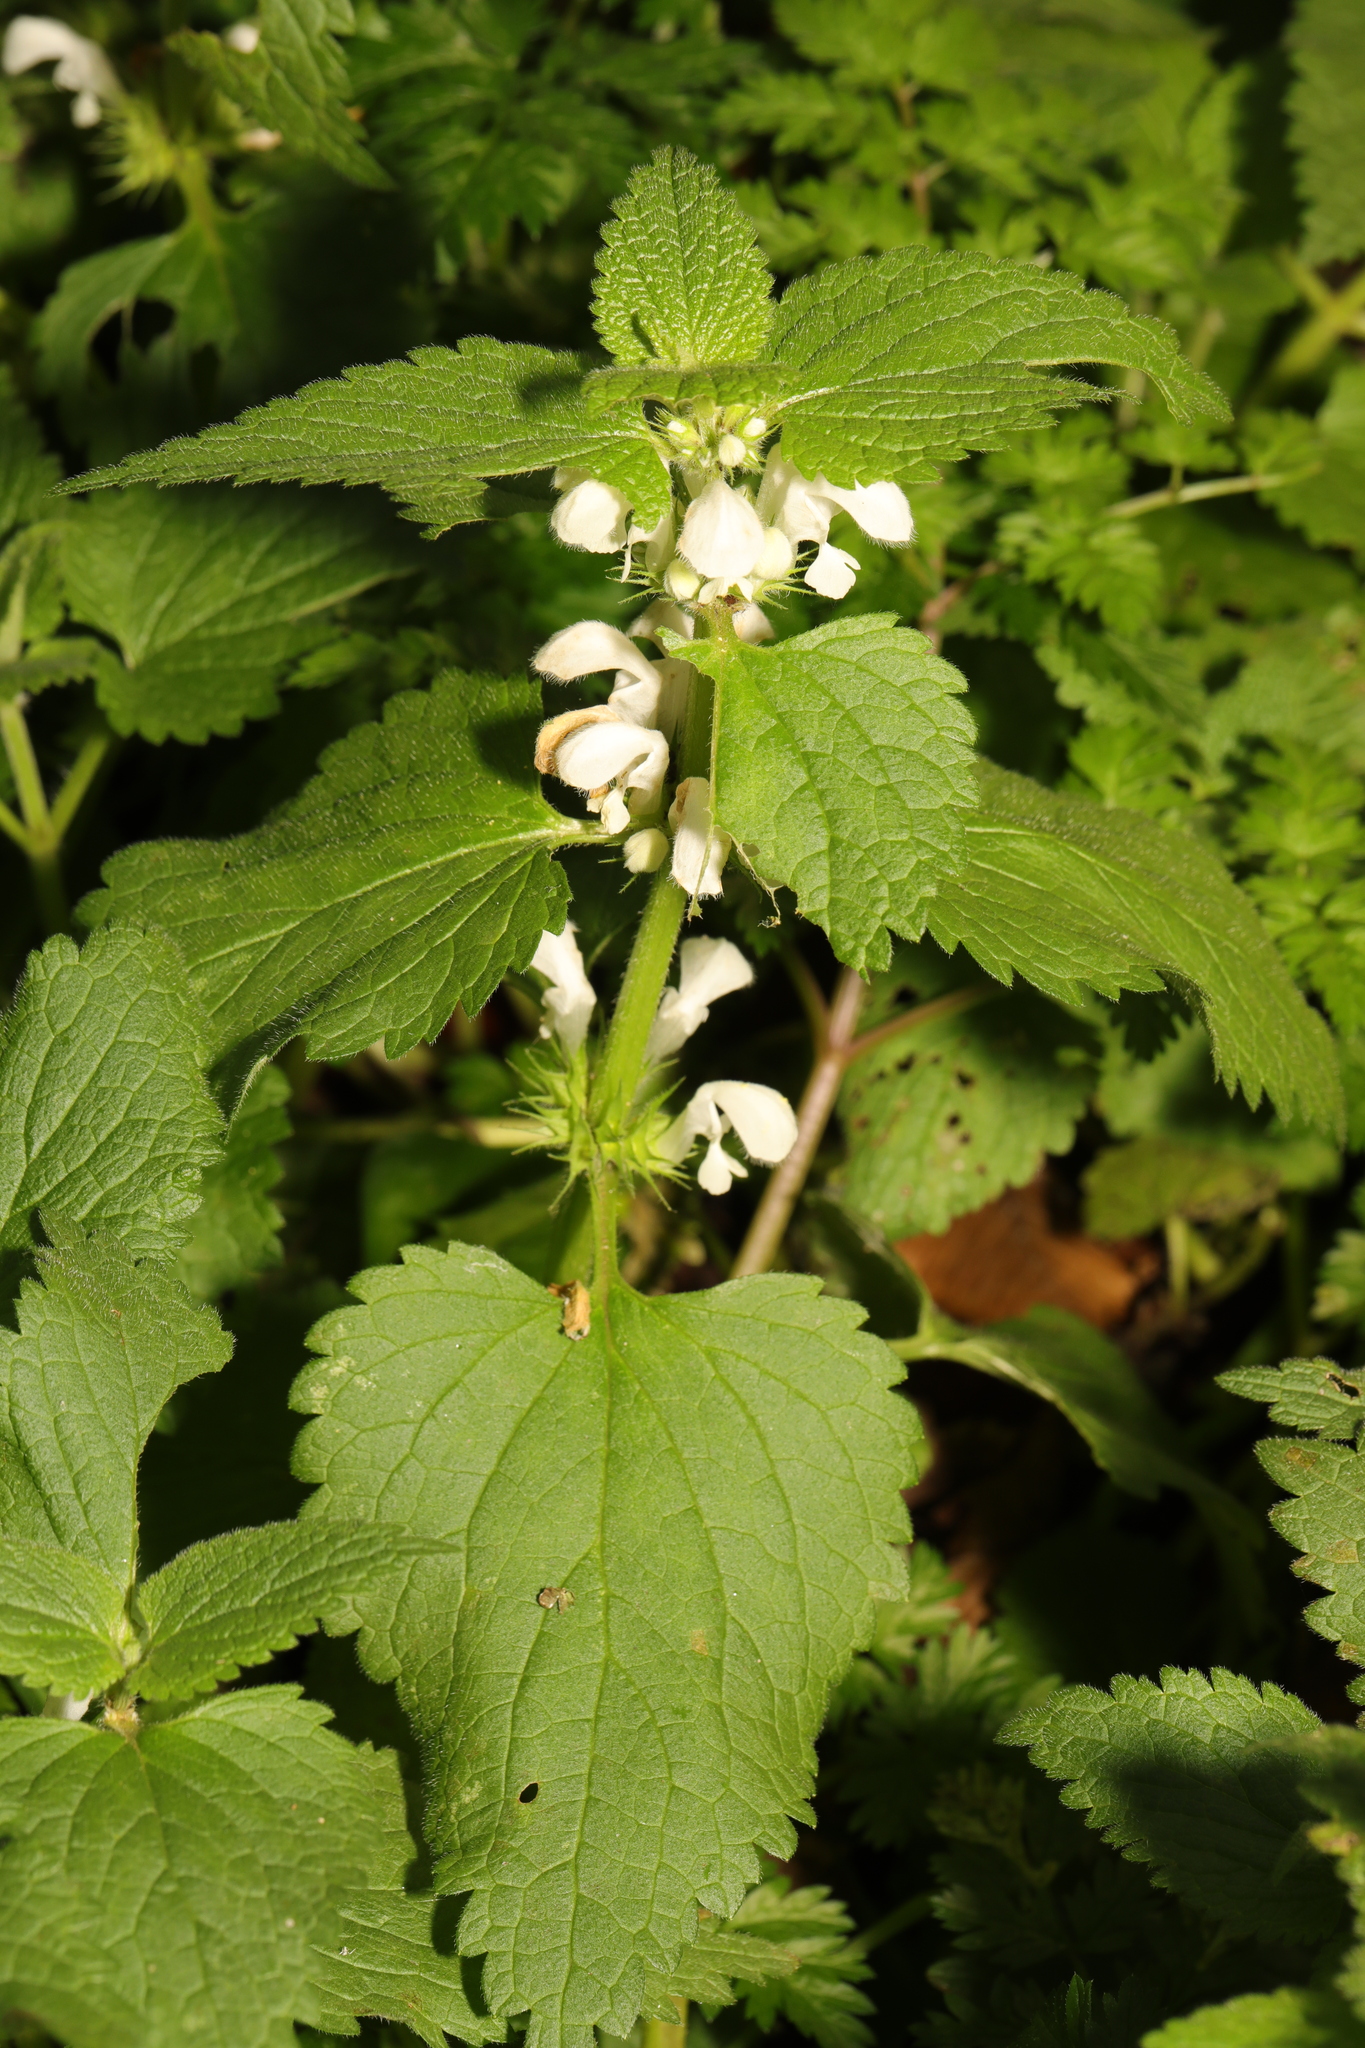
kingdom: Plantae
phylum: Tracheophyta
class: Magnoliopsida
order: Lamiales
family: Lamiaceae
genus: Lamium
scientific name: Lamium album
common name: White dead-nettle
